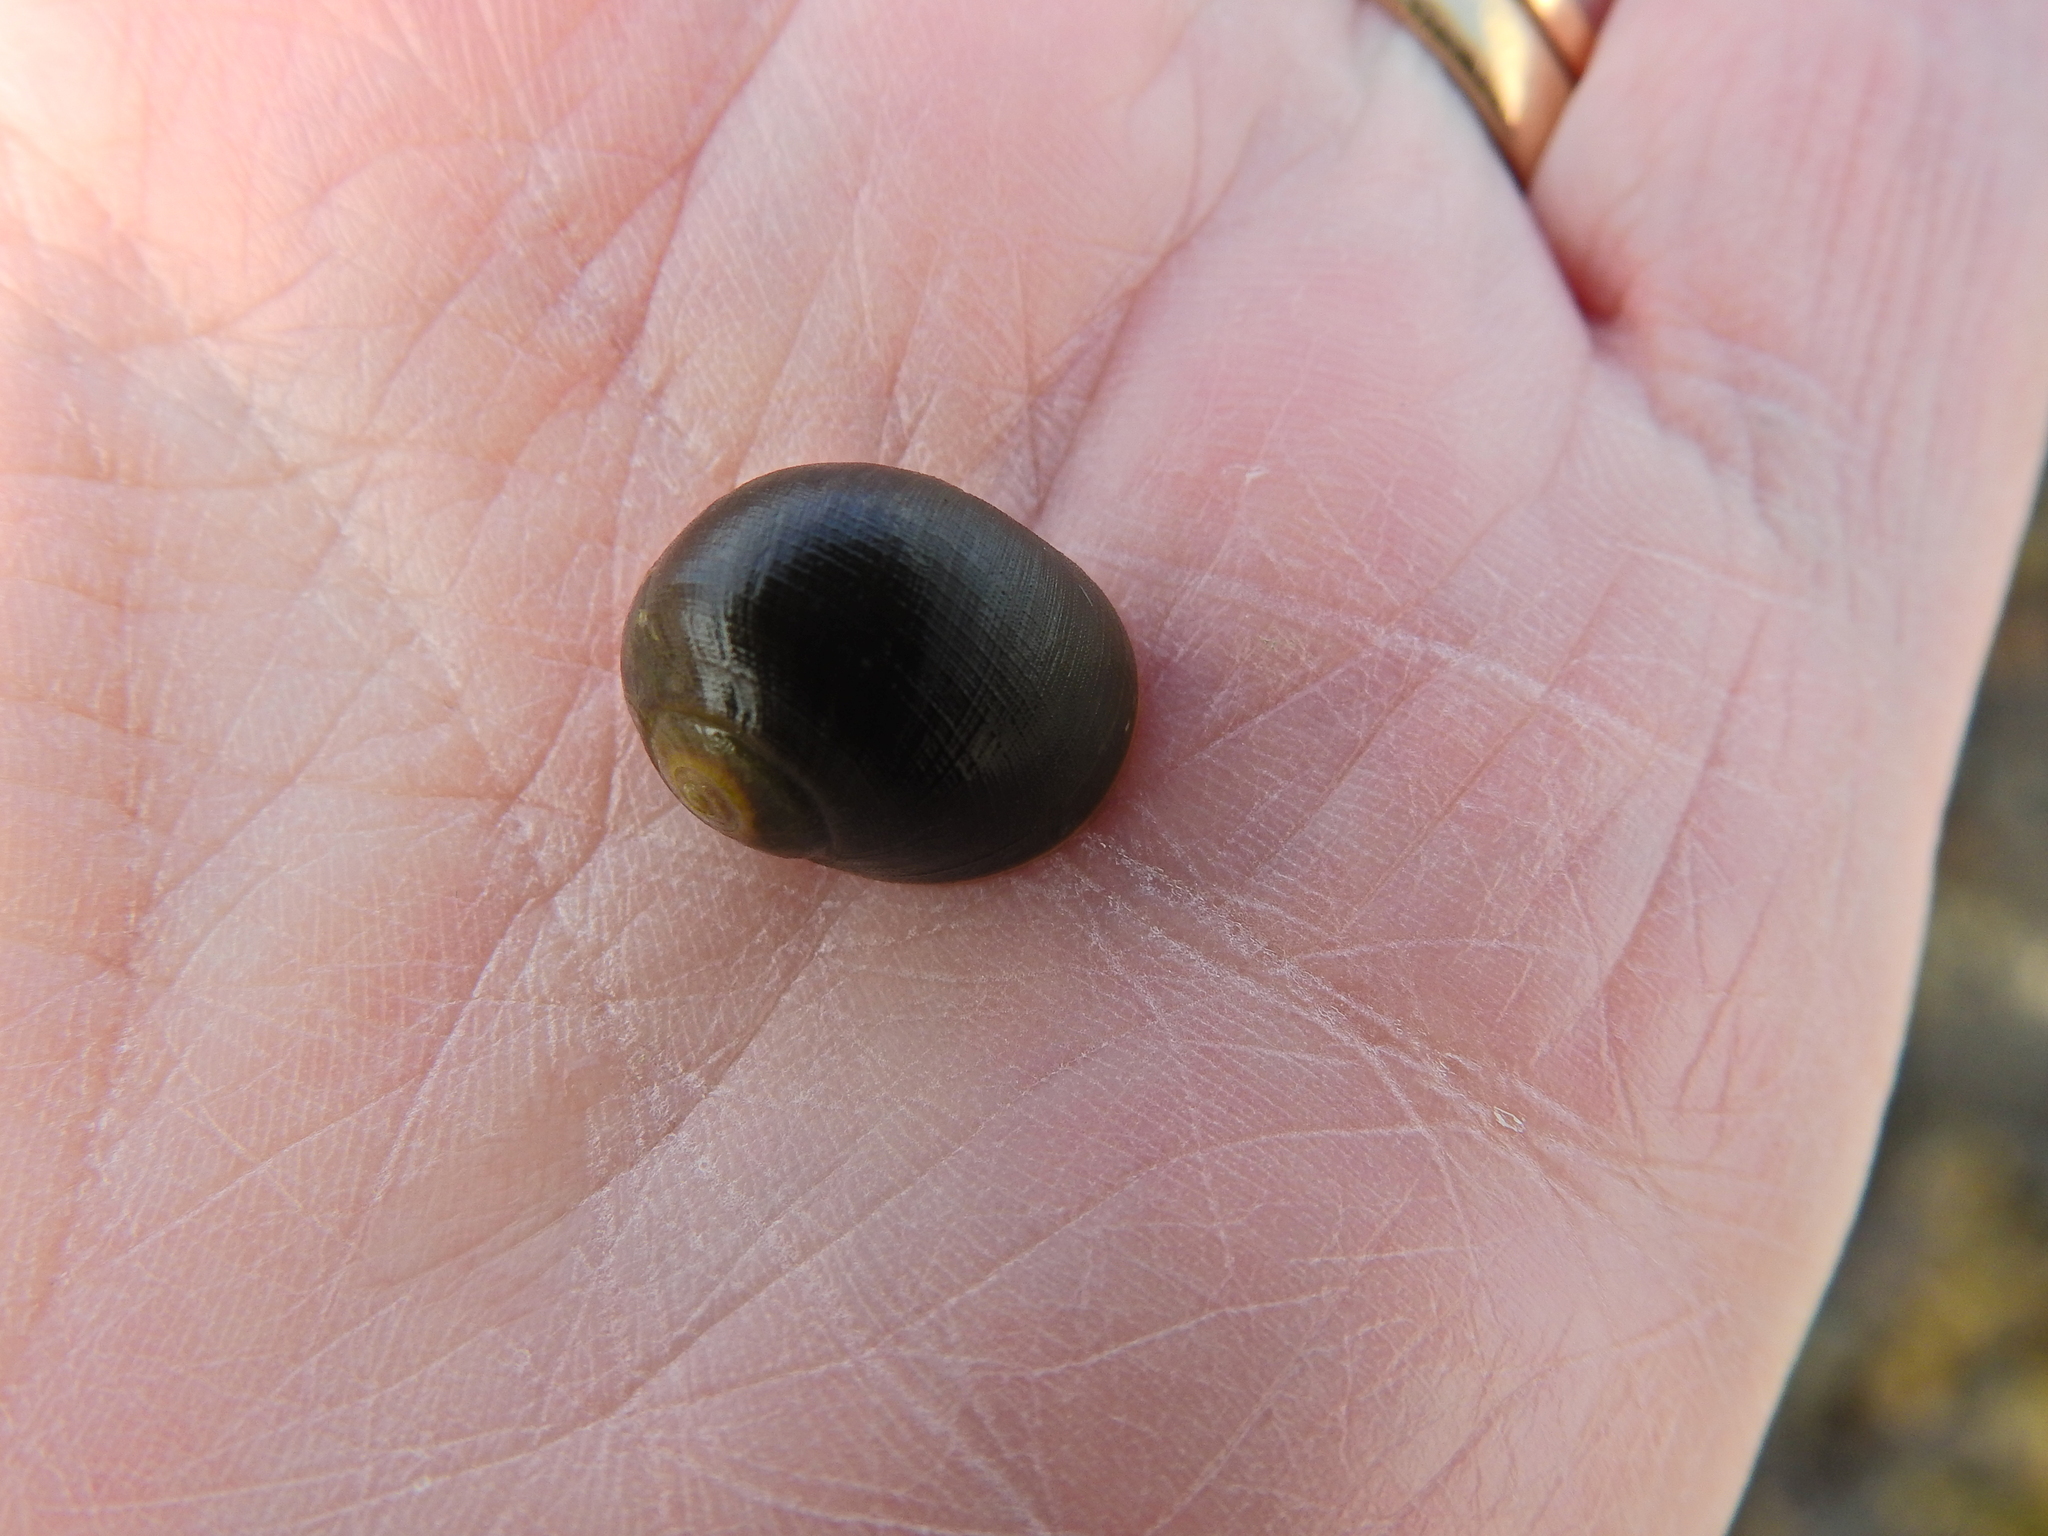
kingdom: Animalia
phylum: Mollusca
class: Gastropoda
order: Littorinimorpha
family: Littorinidae
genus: Littorina
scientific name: Littorina
